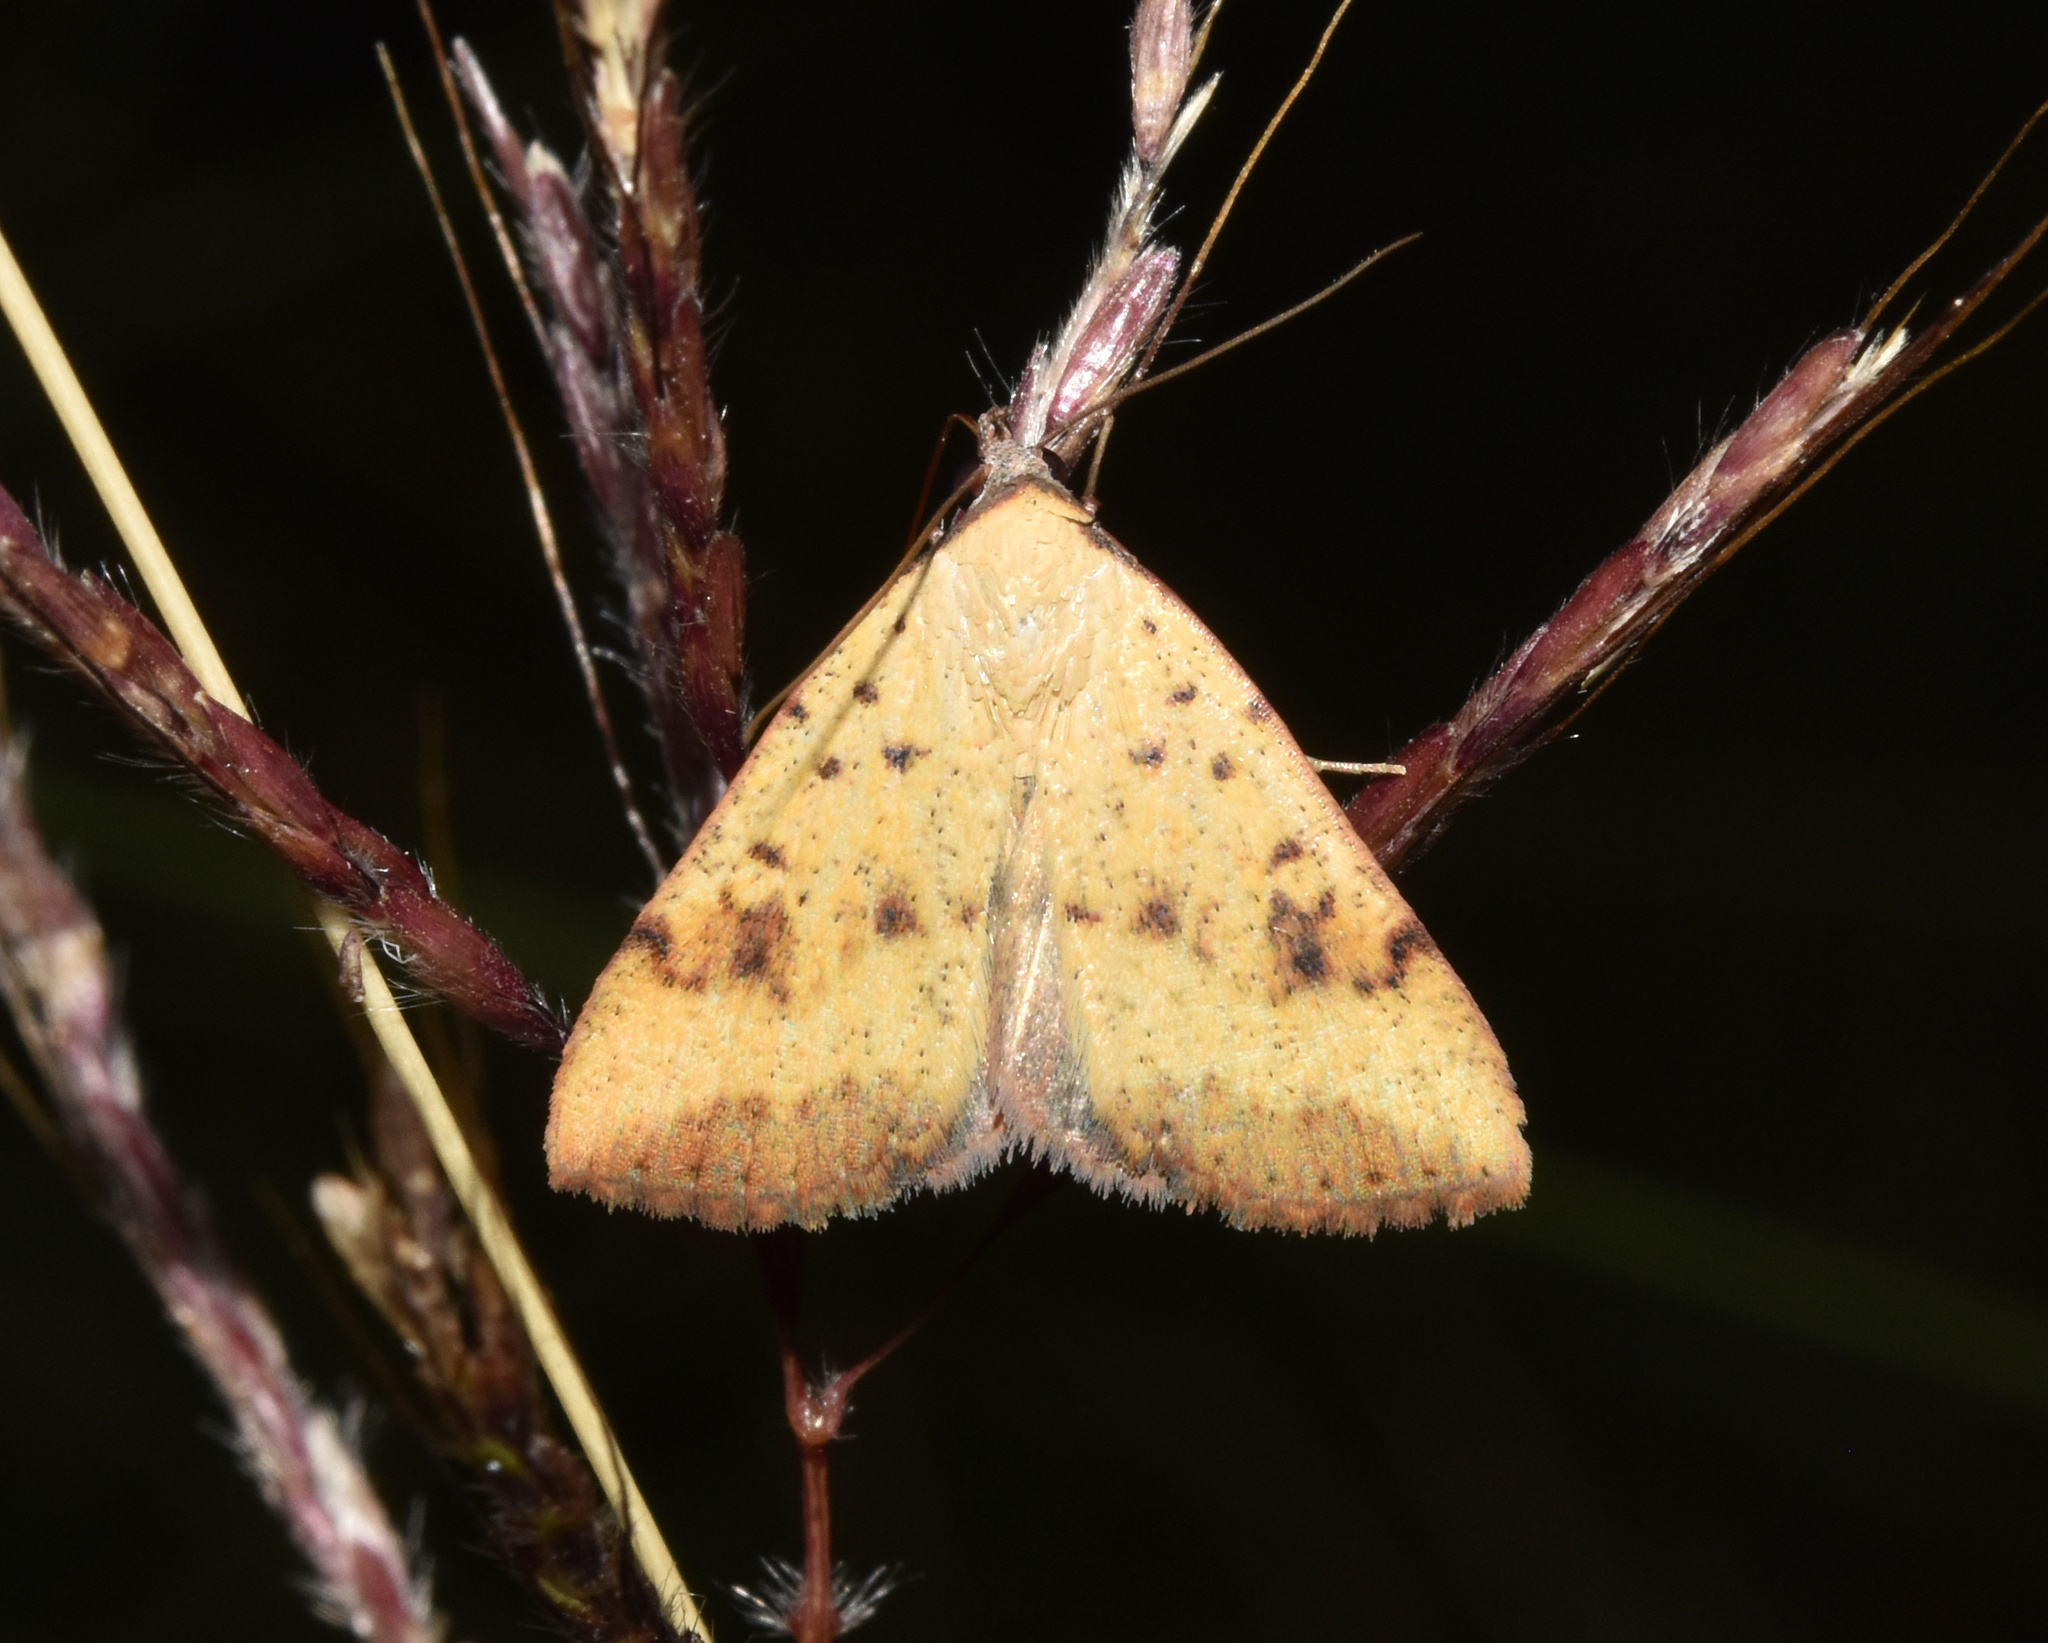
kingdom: Animalia
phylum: Arthropoda
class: Insecta
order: Lepidoptera
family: Erebidae
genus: Phytometra
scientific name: Phytometra fragilis
